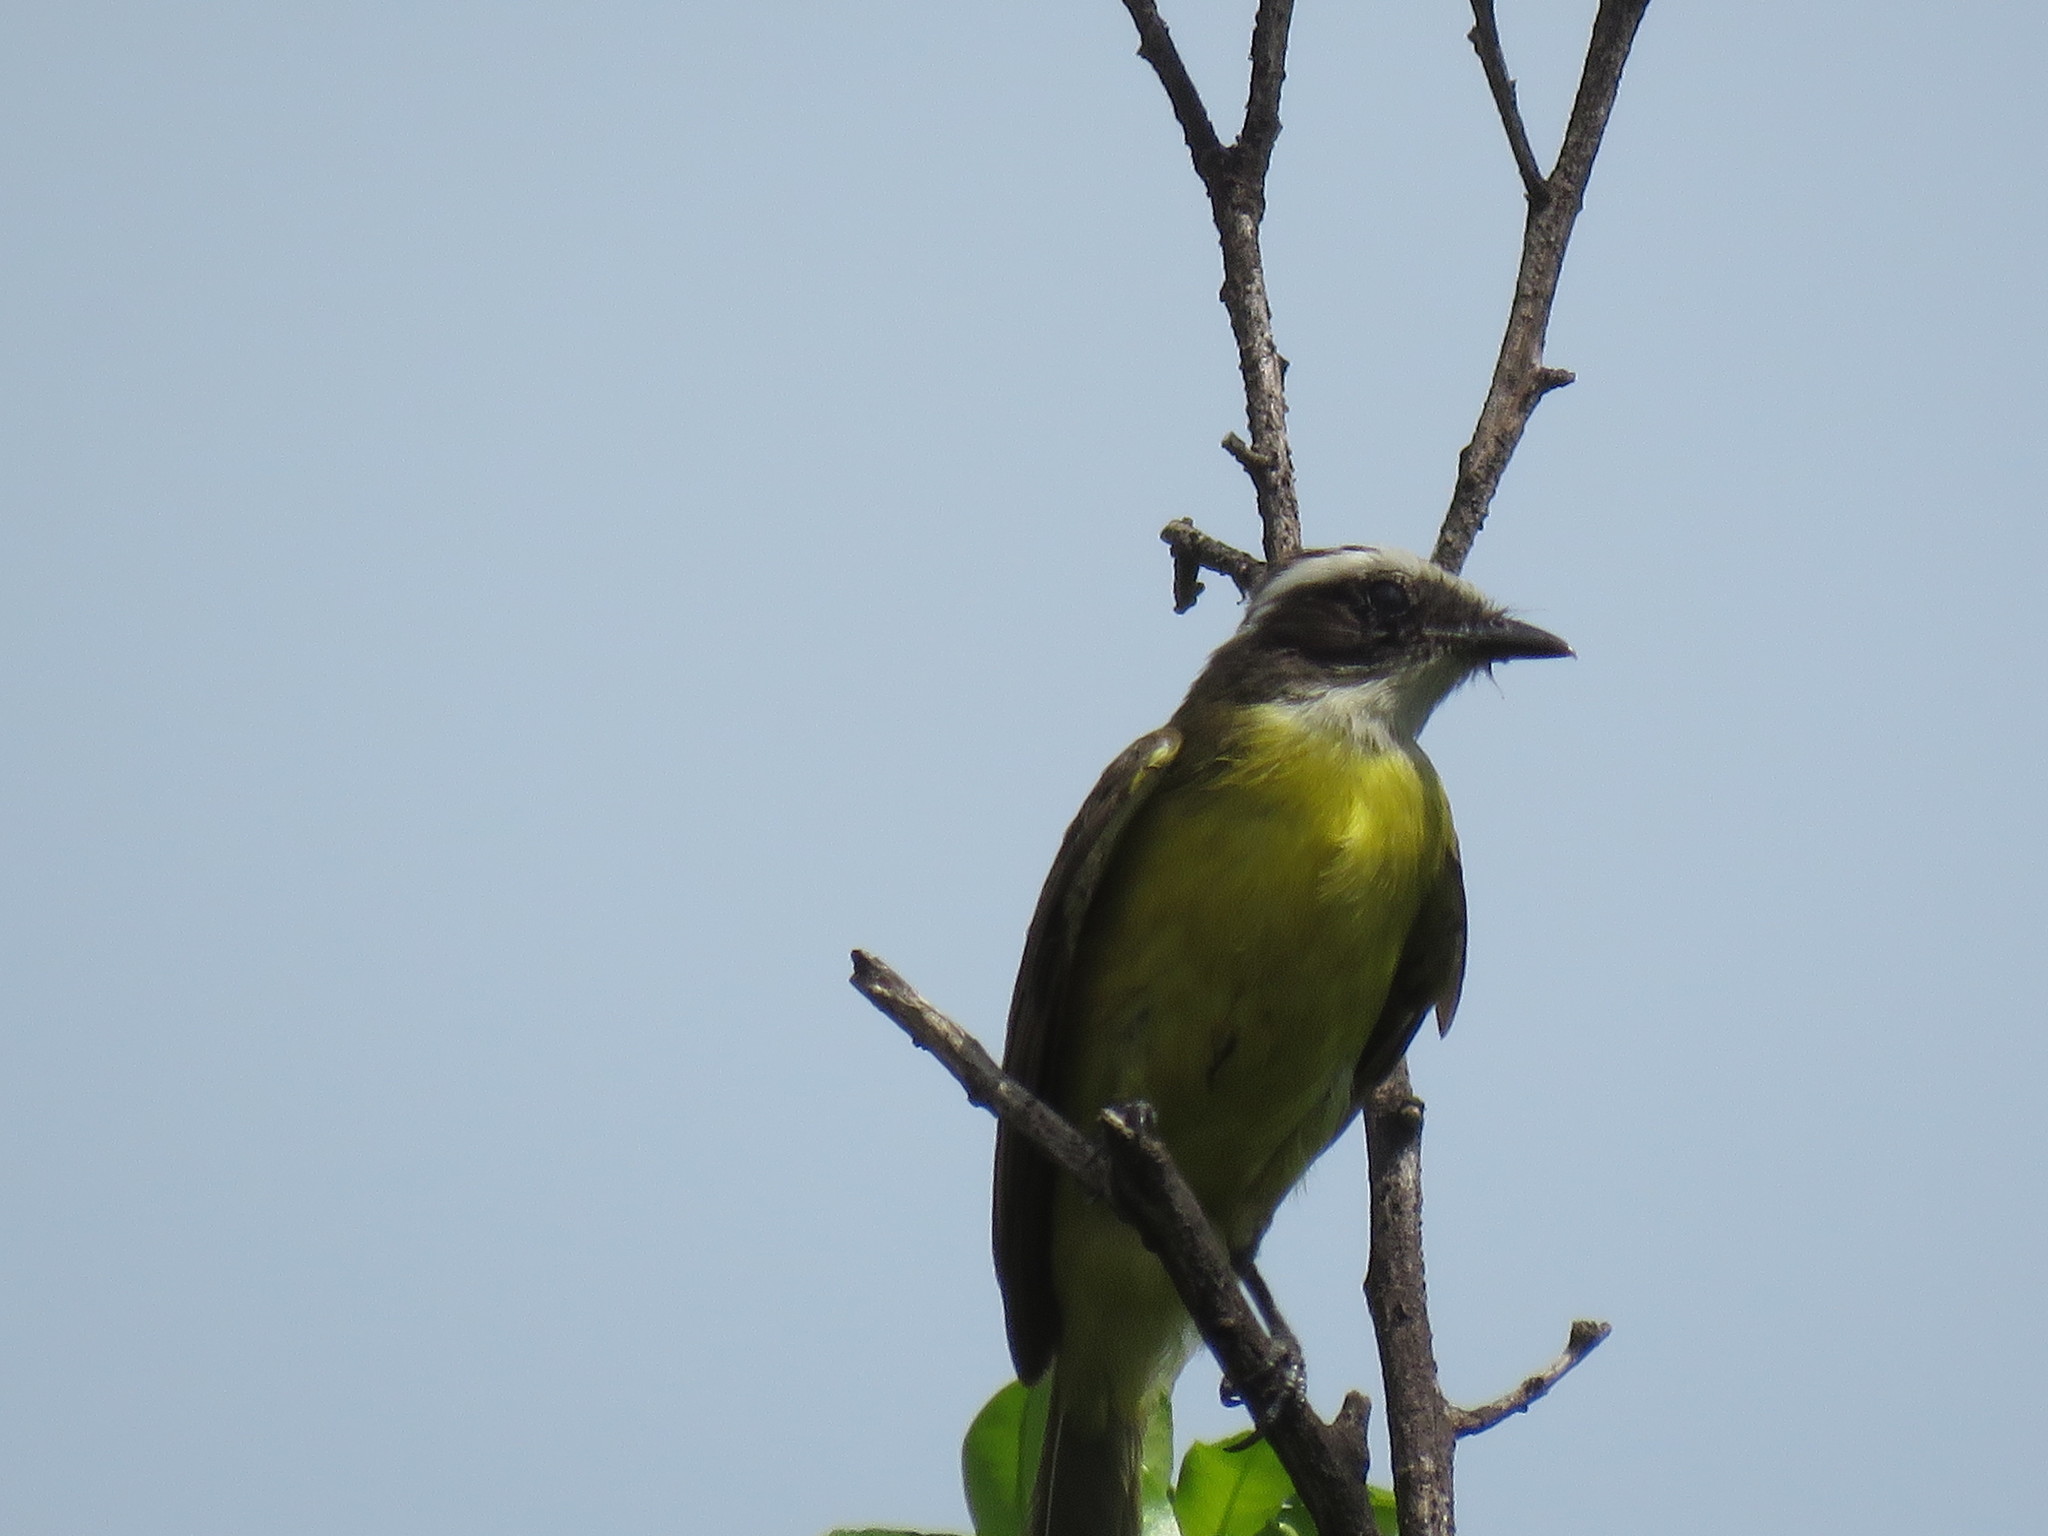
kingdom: Animalia
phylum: Chordata
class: Aves
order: Passeriformes
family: Tyrannidae
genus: Myiozetetes
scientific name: Myiozetetes similis
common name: Social flycatcher
